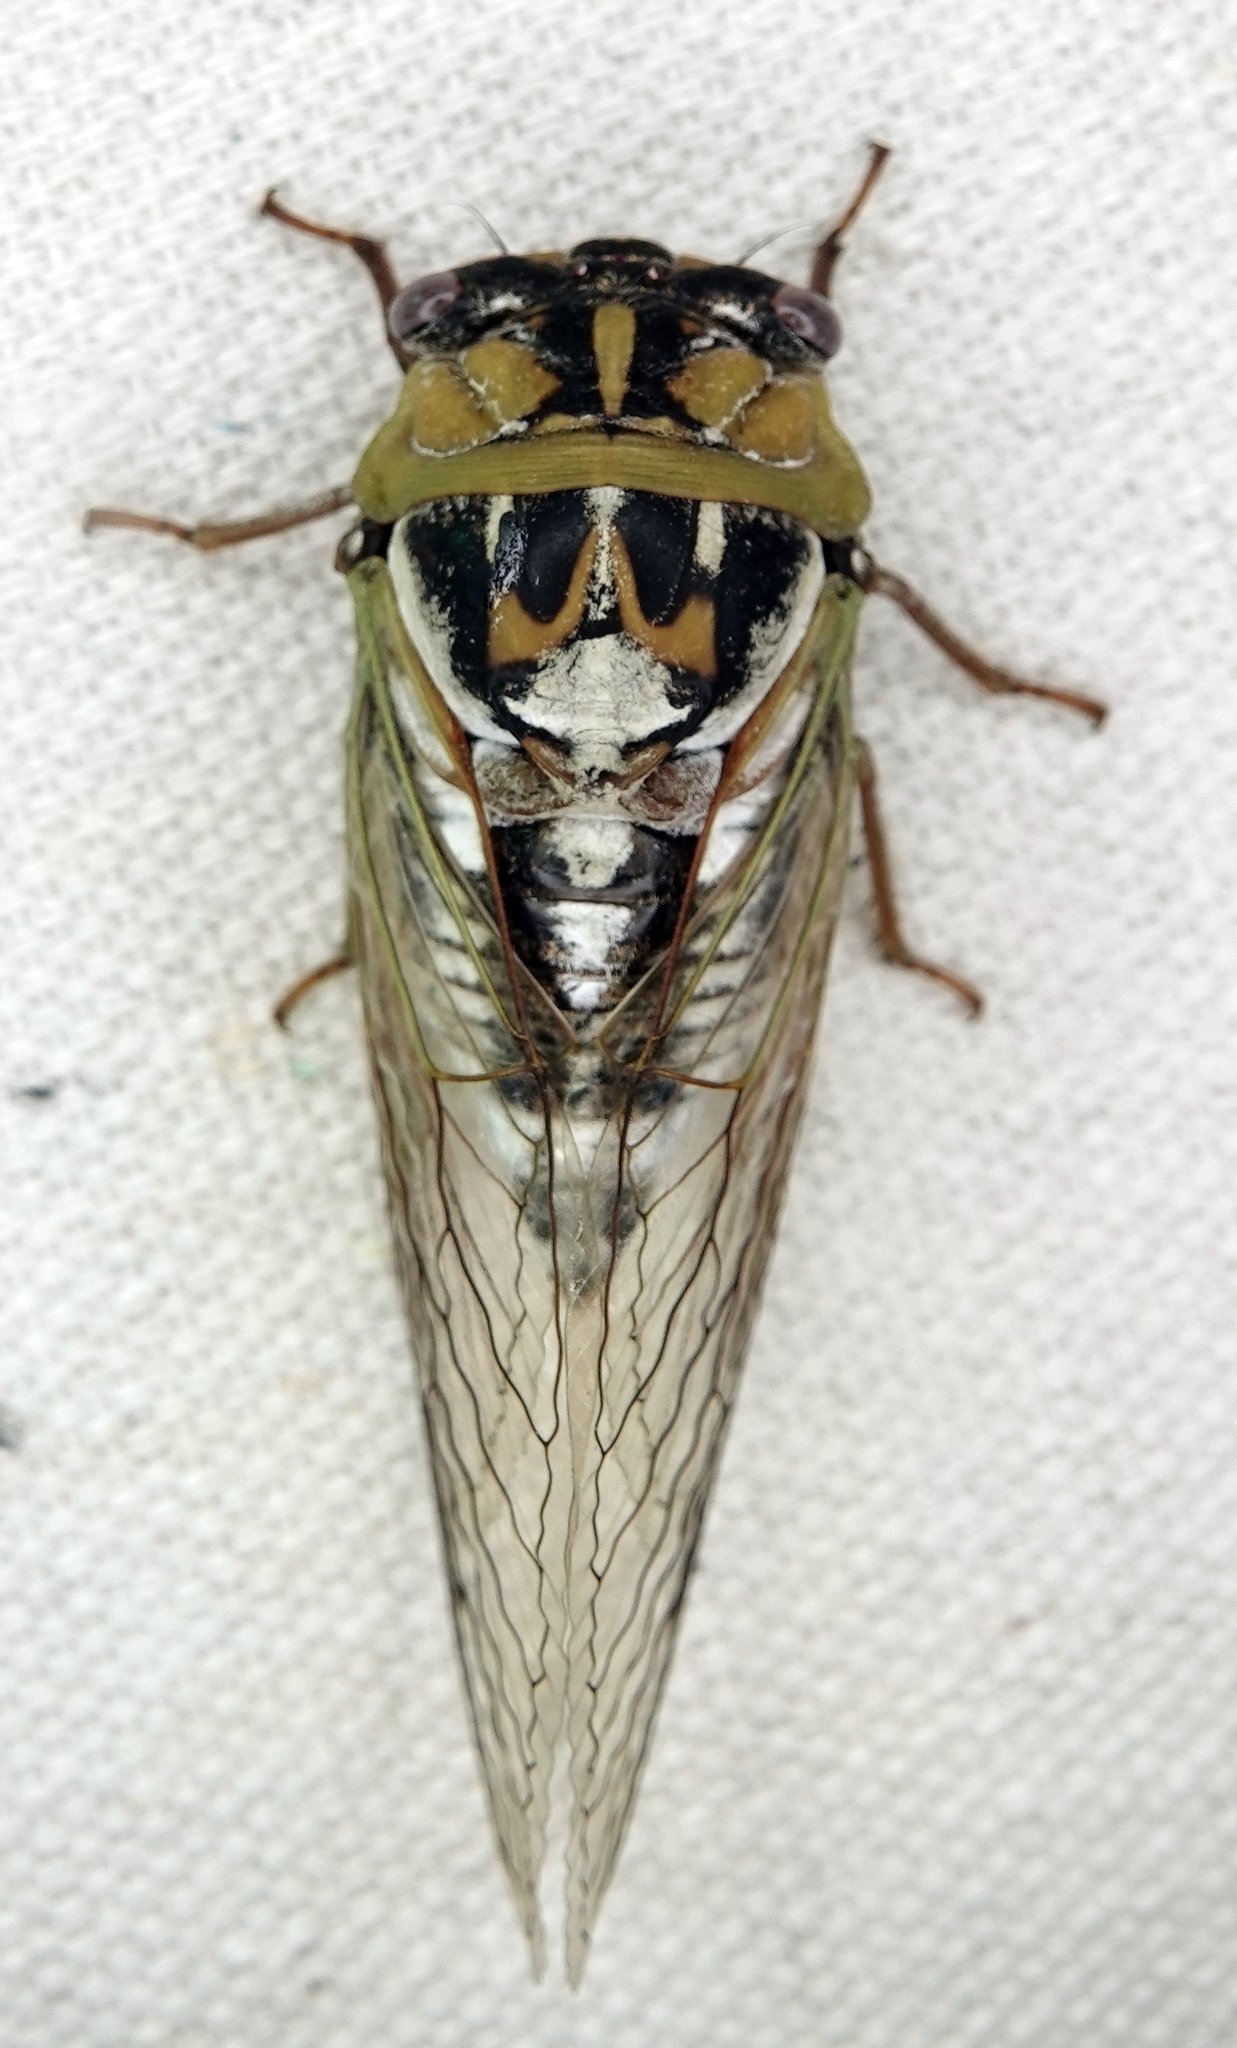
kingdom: Animalia
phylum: Arthropoda
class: Insecta
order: Hemiptera
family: Cicadidae
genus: Megatibicen
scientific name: Megatibicen dealbatus
